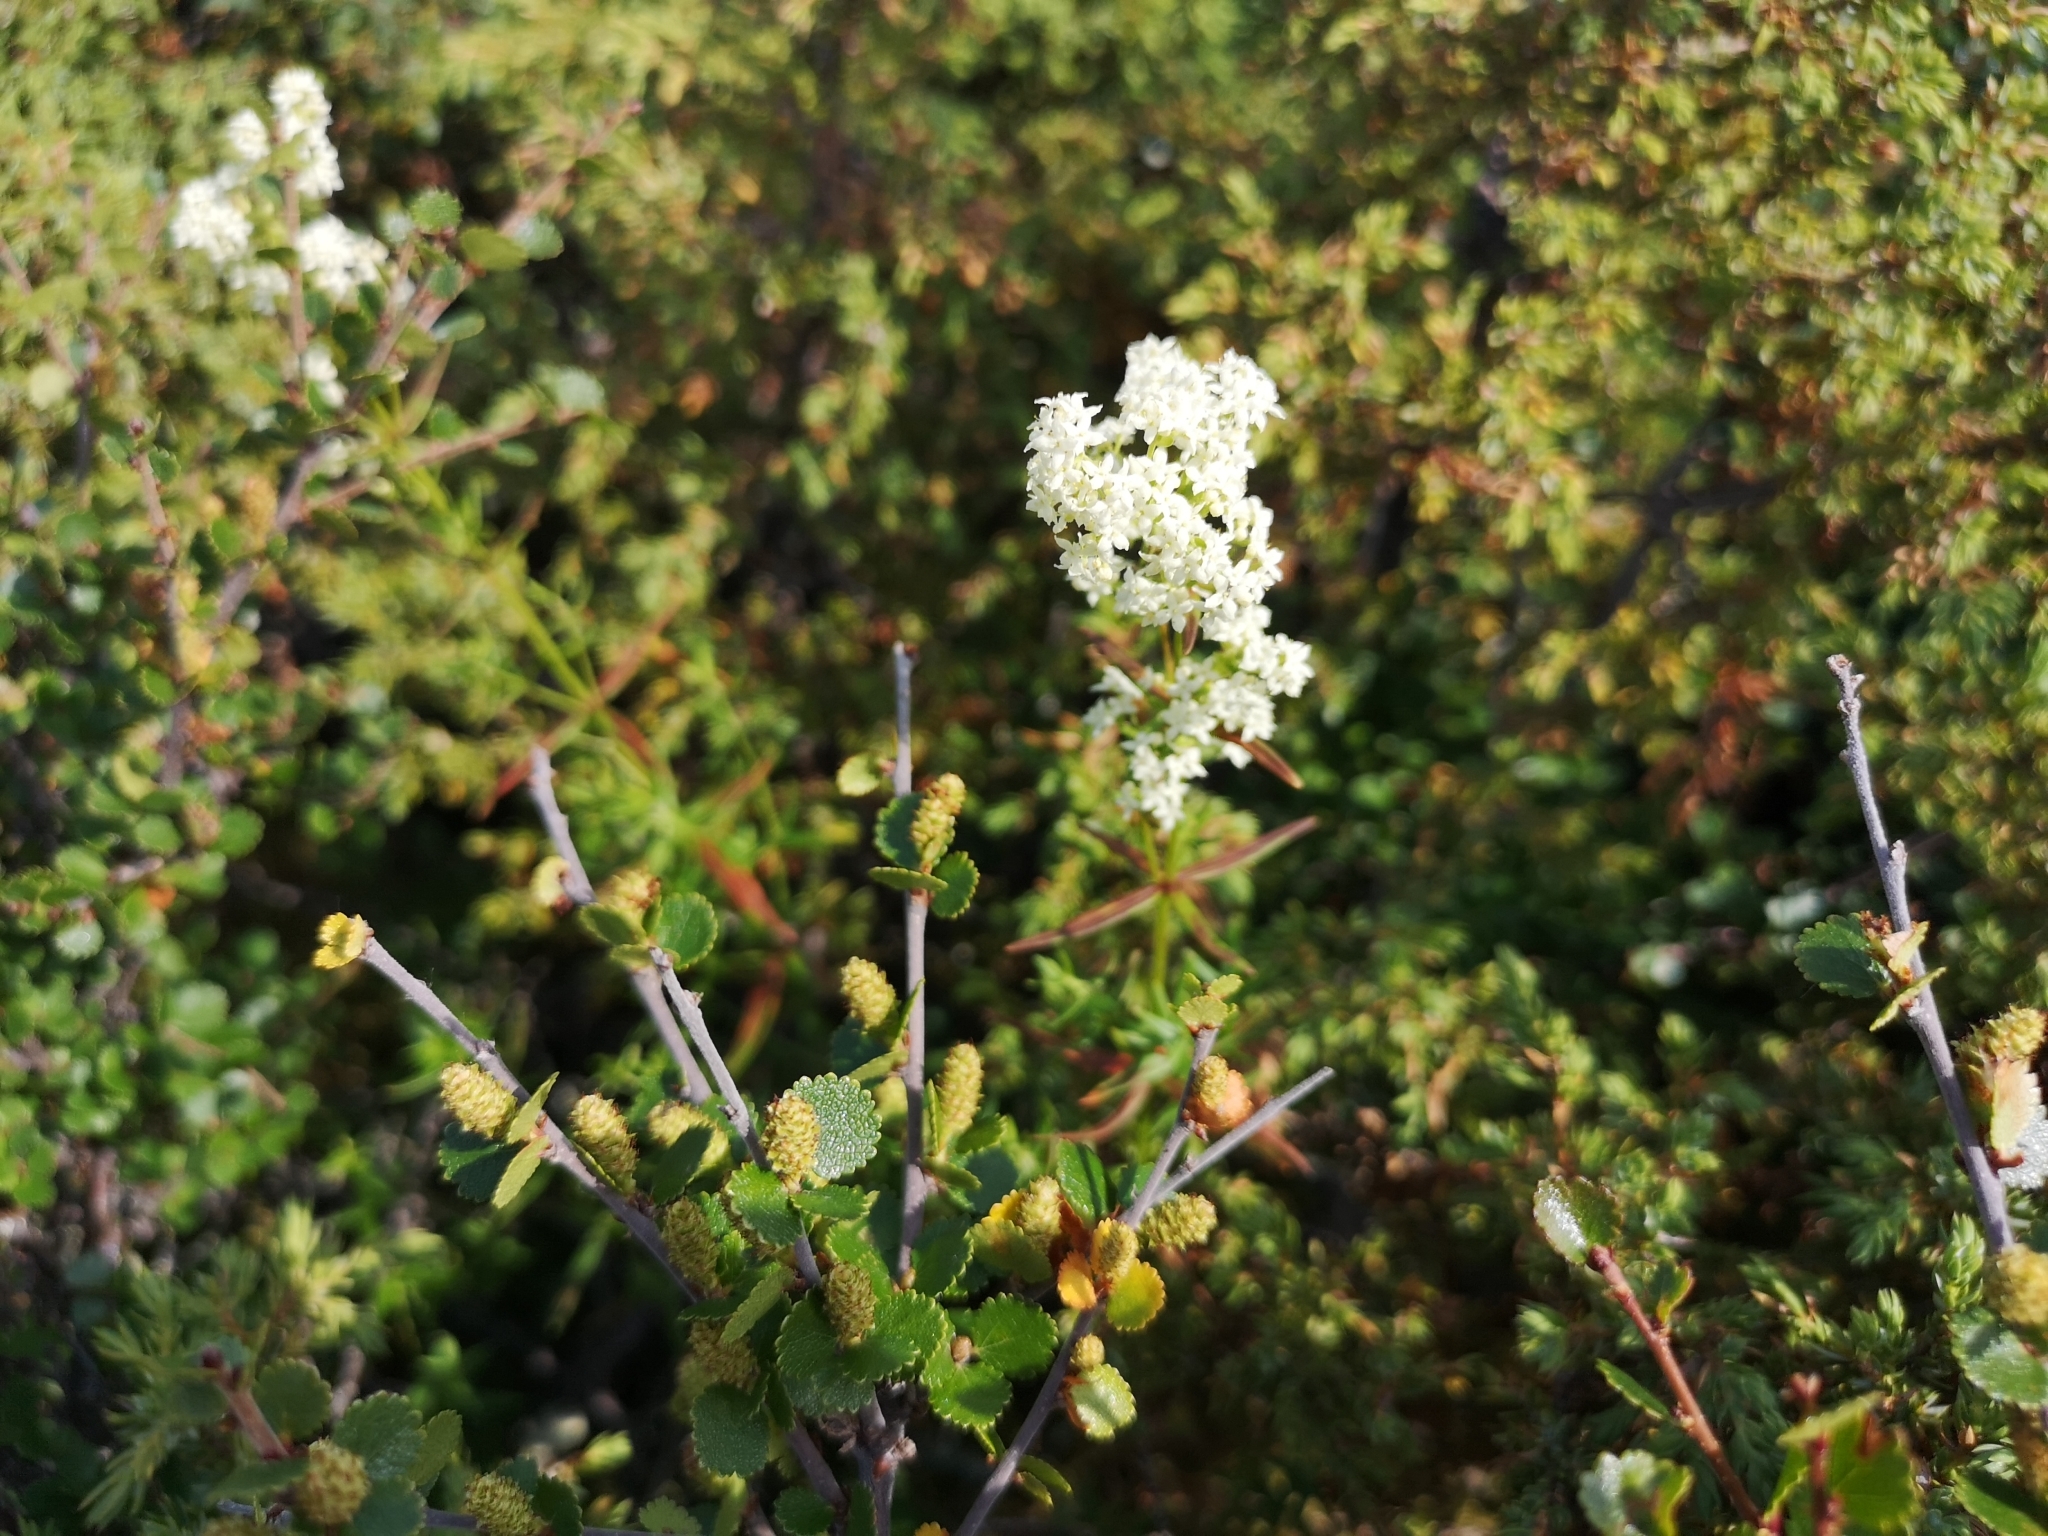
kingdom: Plantae
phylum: Tracheophyta
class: Magnoliopsida
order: Gentianales
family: Rubiaceae
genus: Galium
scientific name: Galium boreale
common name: Northern bedstraw
